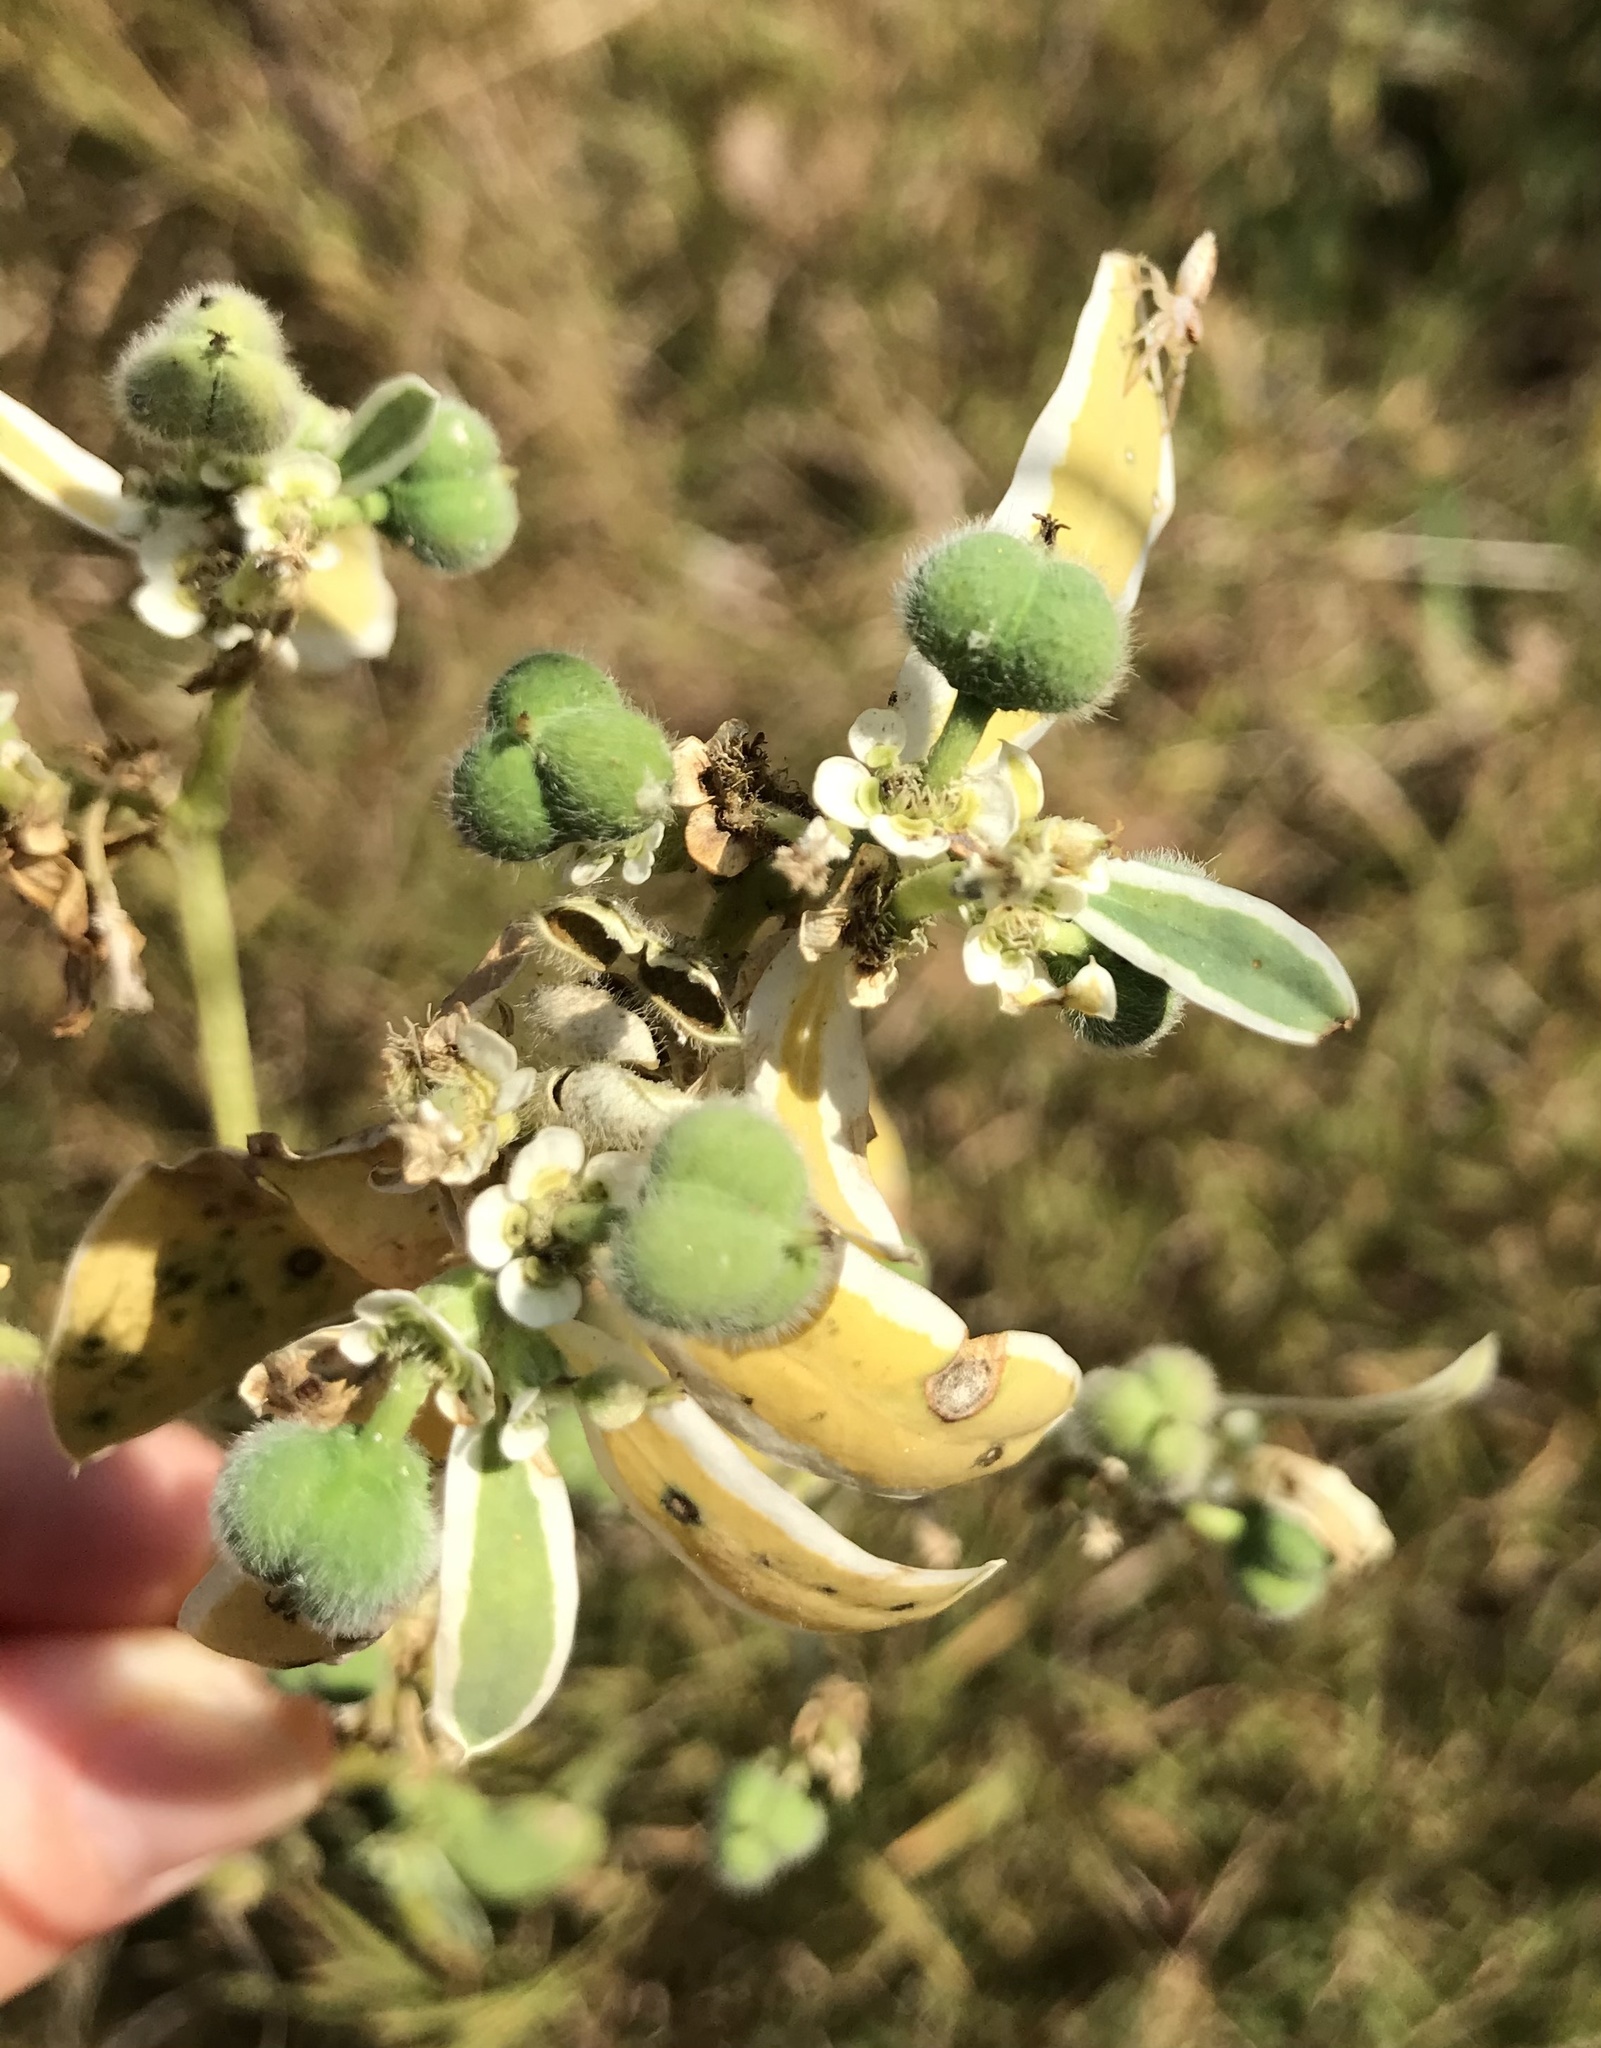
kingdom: Plantae
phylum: Tracheophyta
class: Magnoliopsida
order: Malpighiales
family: Euphorbiaceae
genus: Euphorbia
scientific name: Euphorbia marginata
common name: Ghostweed
